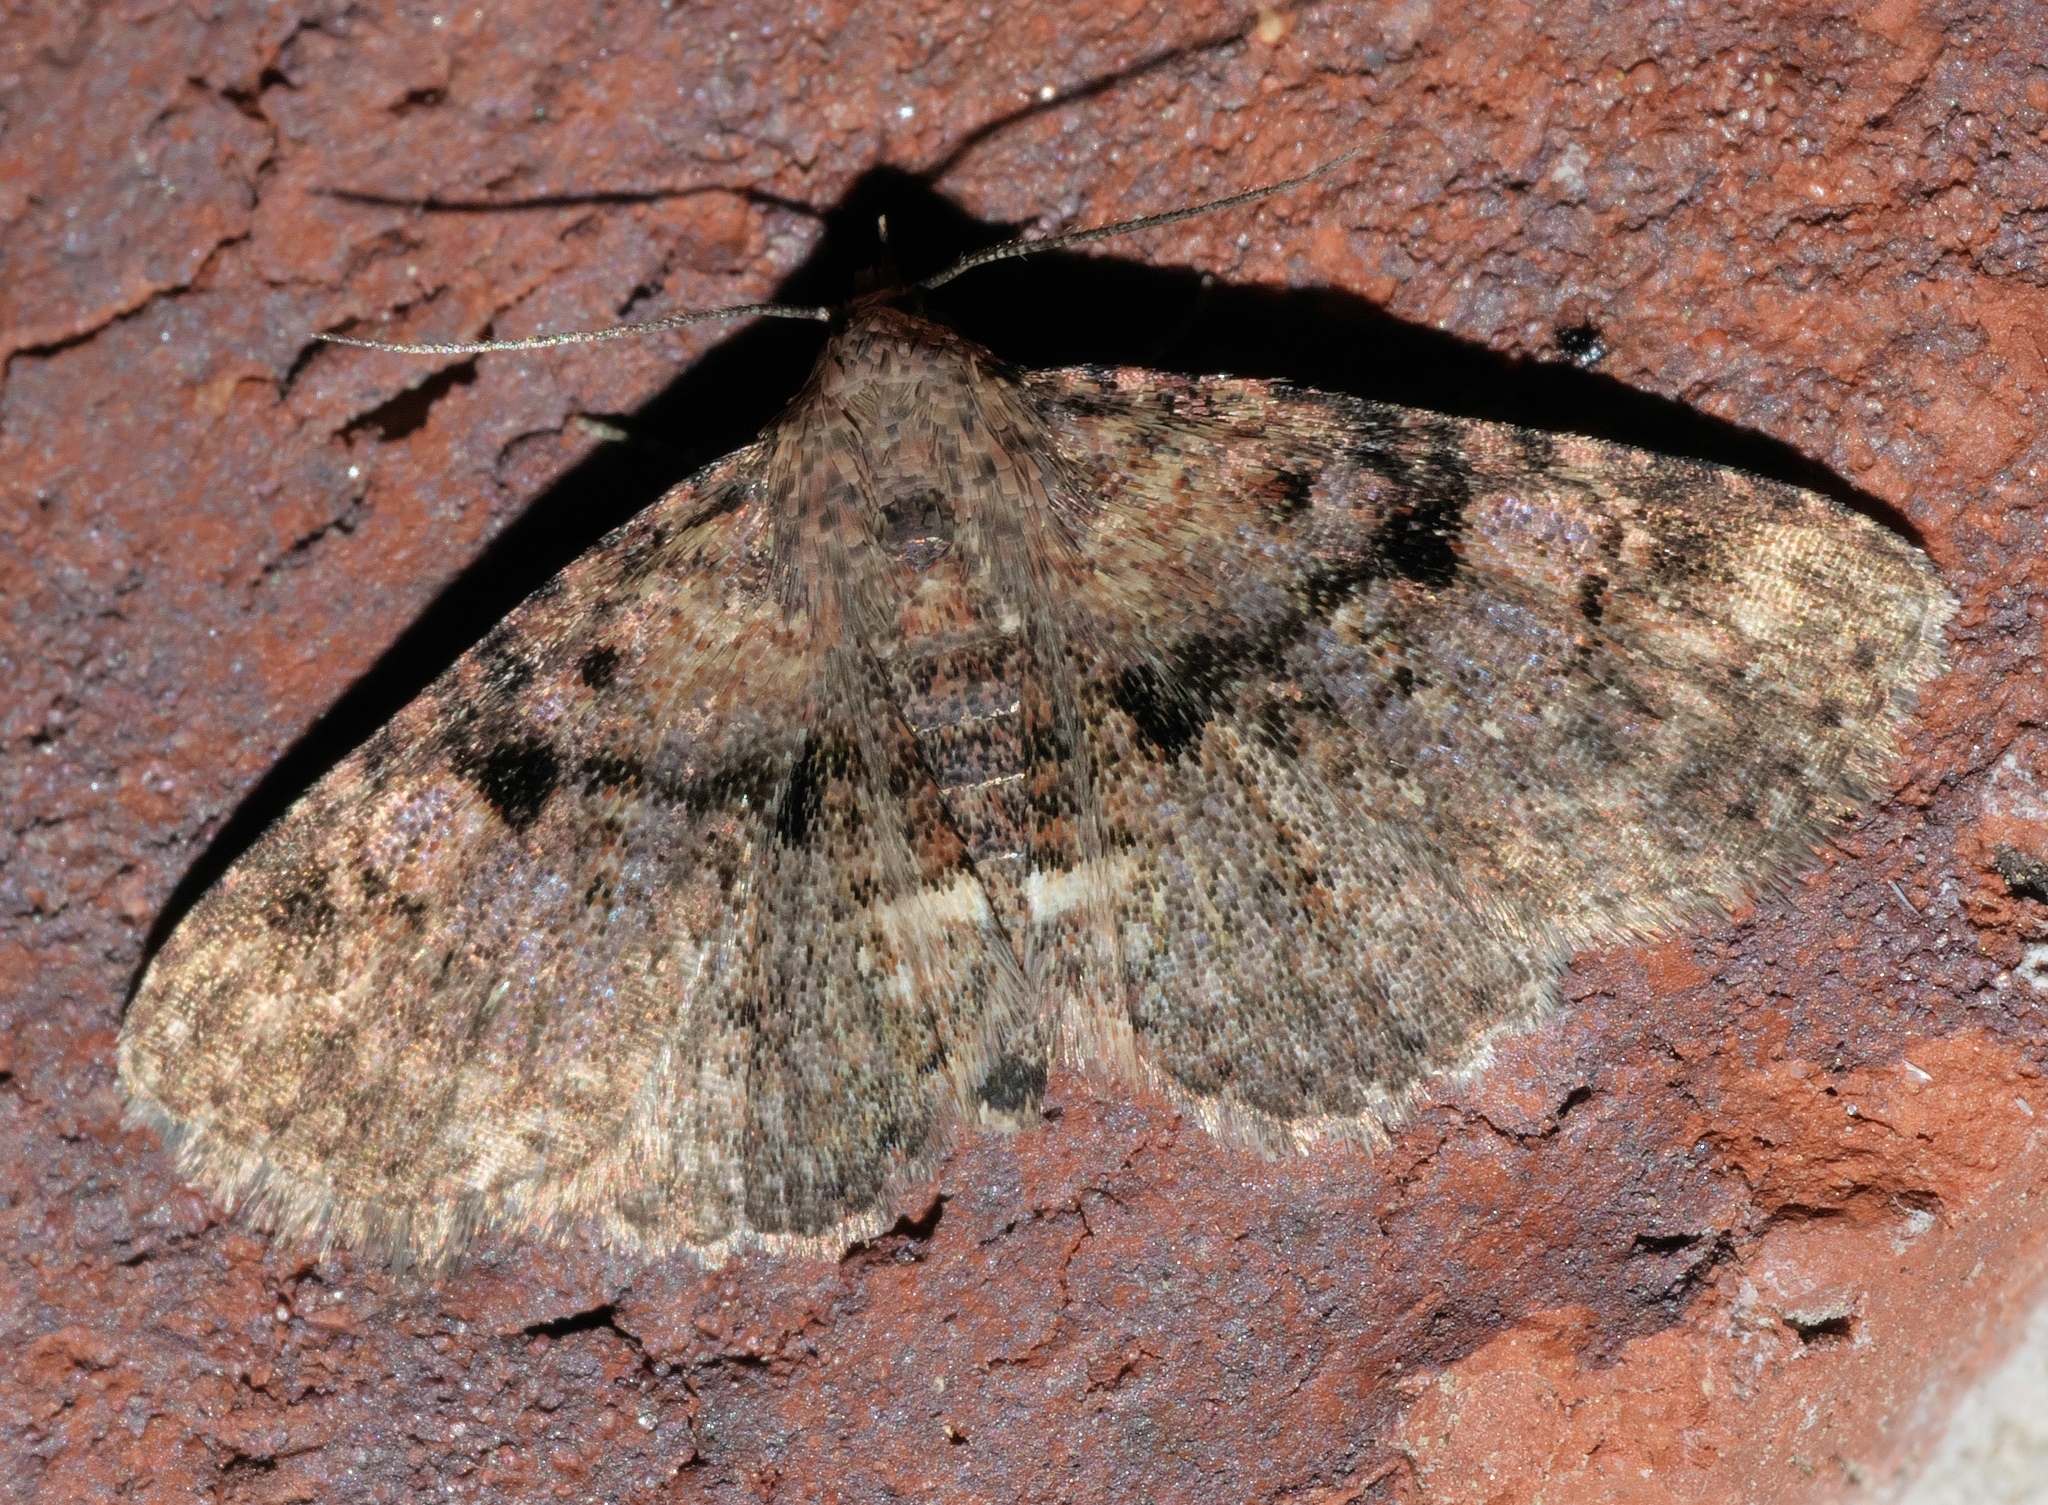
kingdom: Animalia
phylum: Arthropoda
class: Insecta
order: Lepidoptera
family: Erebidae
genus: Metalectra
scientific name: Metalectra quadrisignata
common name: Four-spotted fungus moth
